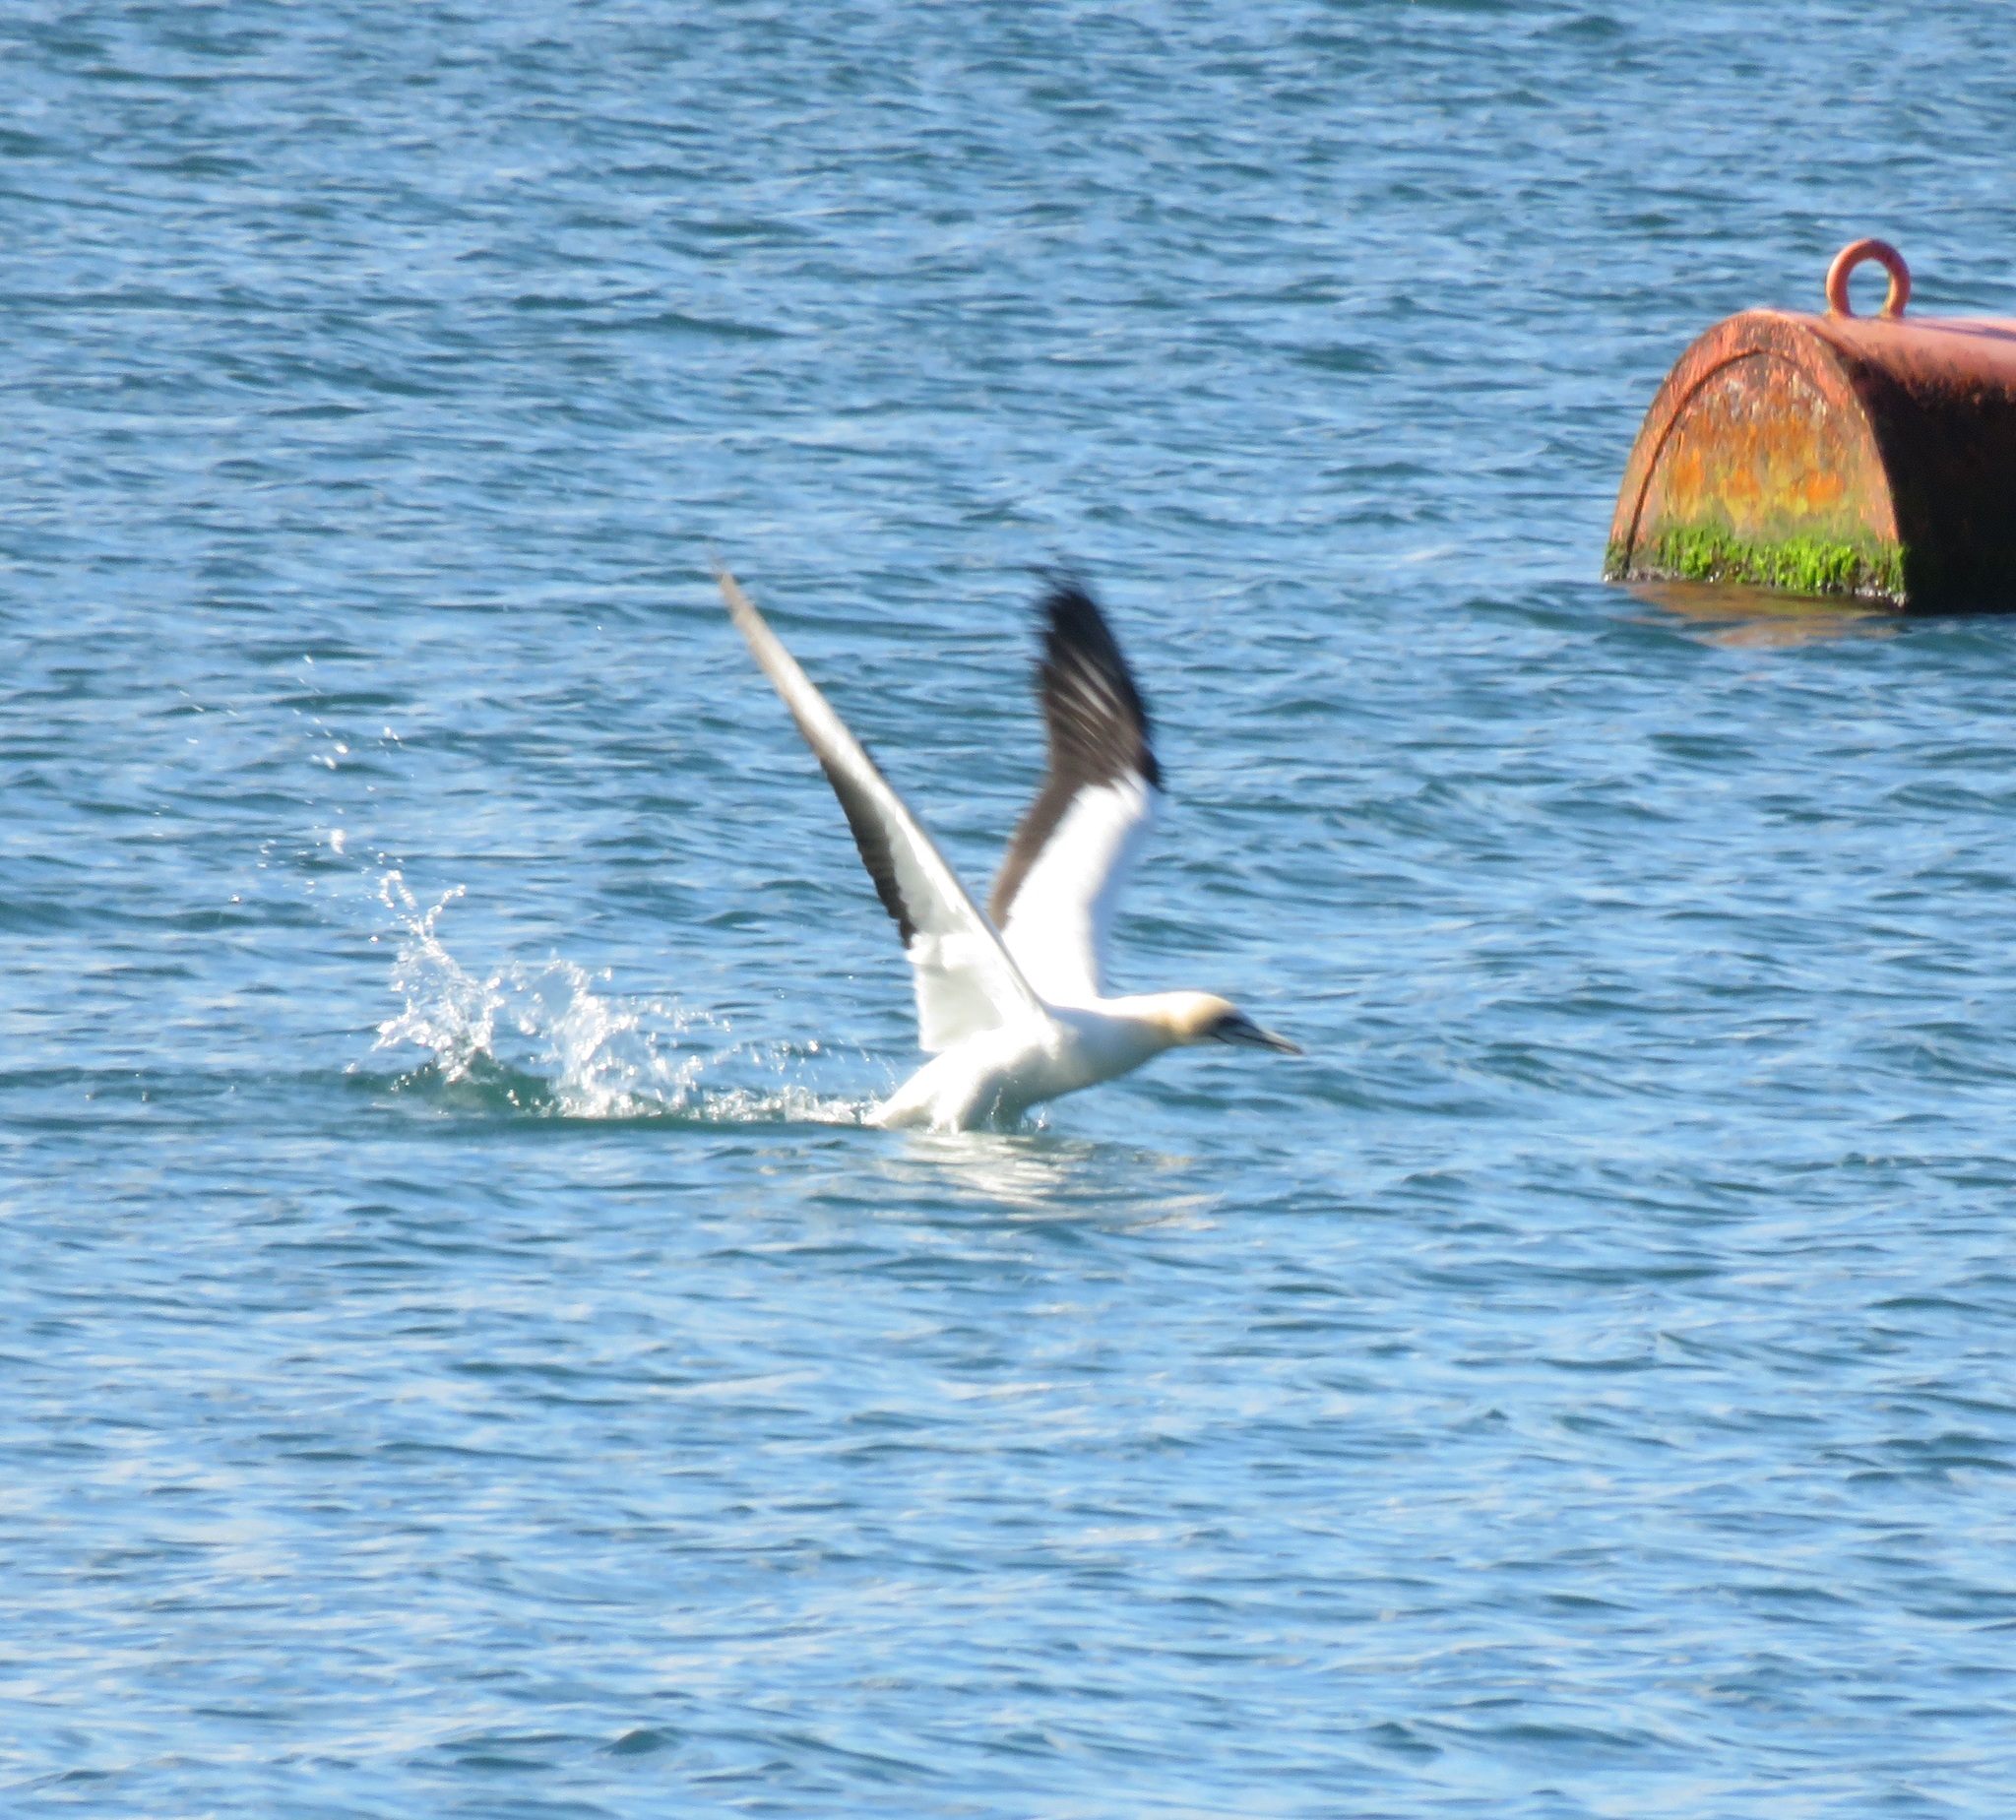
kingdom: Animalia
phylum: Chordata
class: Aves
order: Suliformes
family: Sulidae
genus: Morus
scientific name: Morus serrator
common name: Australasian gannet
